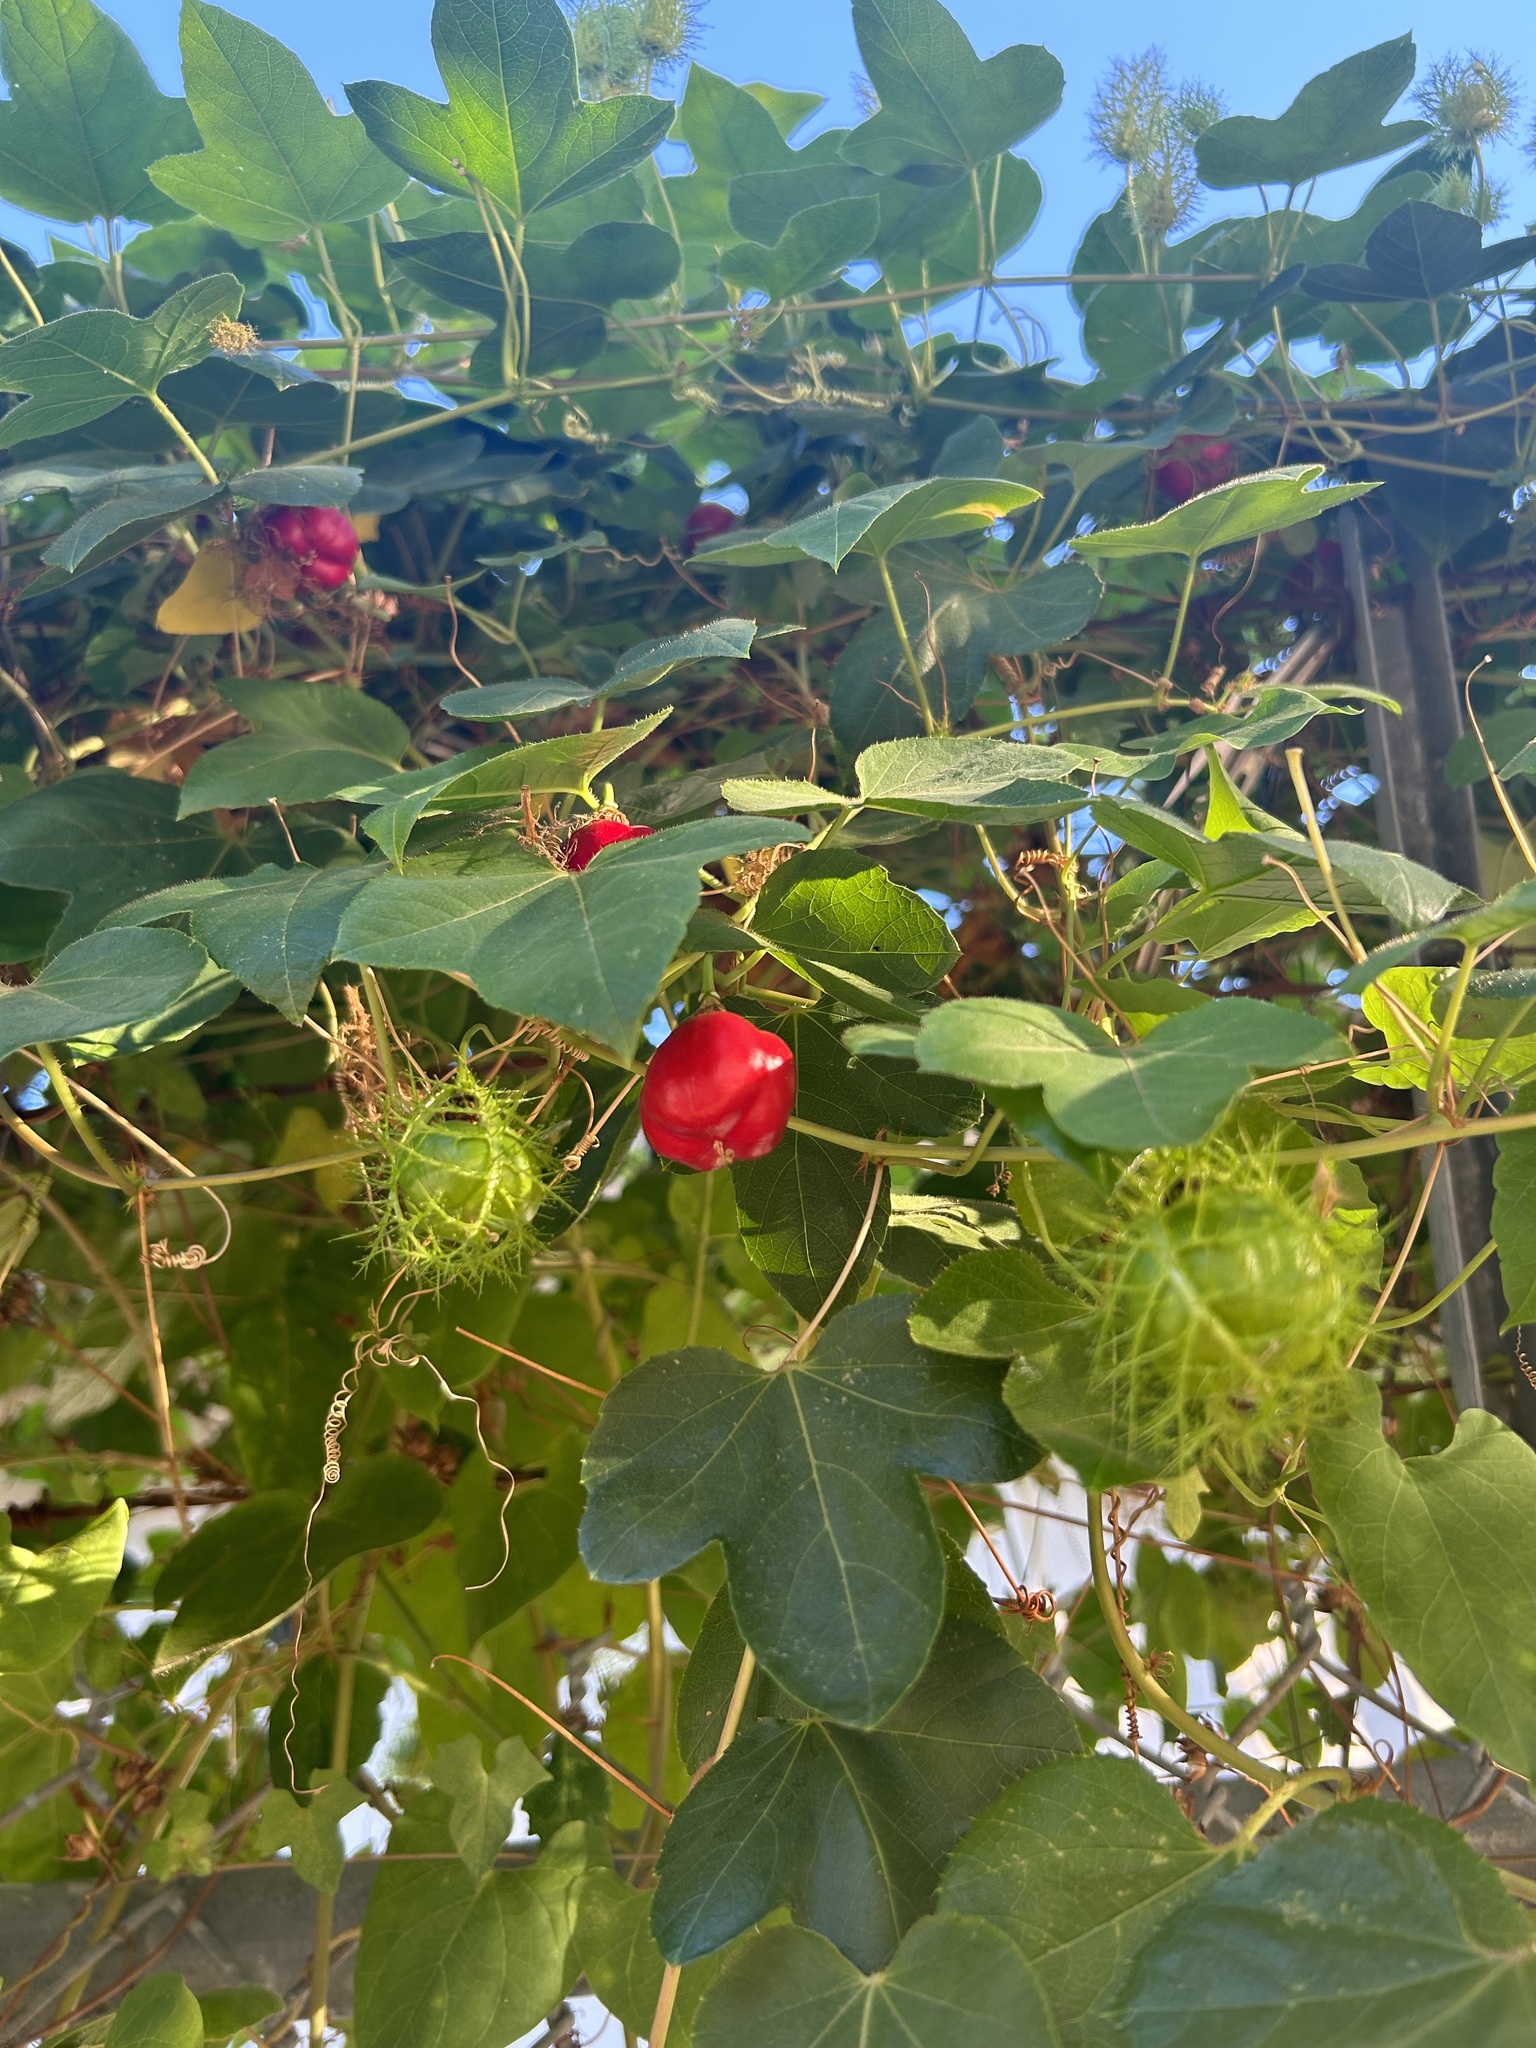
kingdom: Plantae
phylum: Tracheophyta
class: Magnoliopsida
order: Malpighiales
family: Passifloraceae
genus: Passiflora
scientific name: Passiflora
